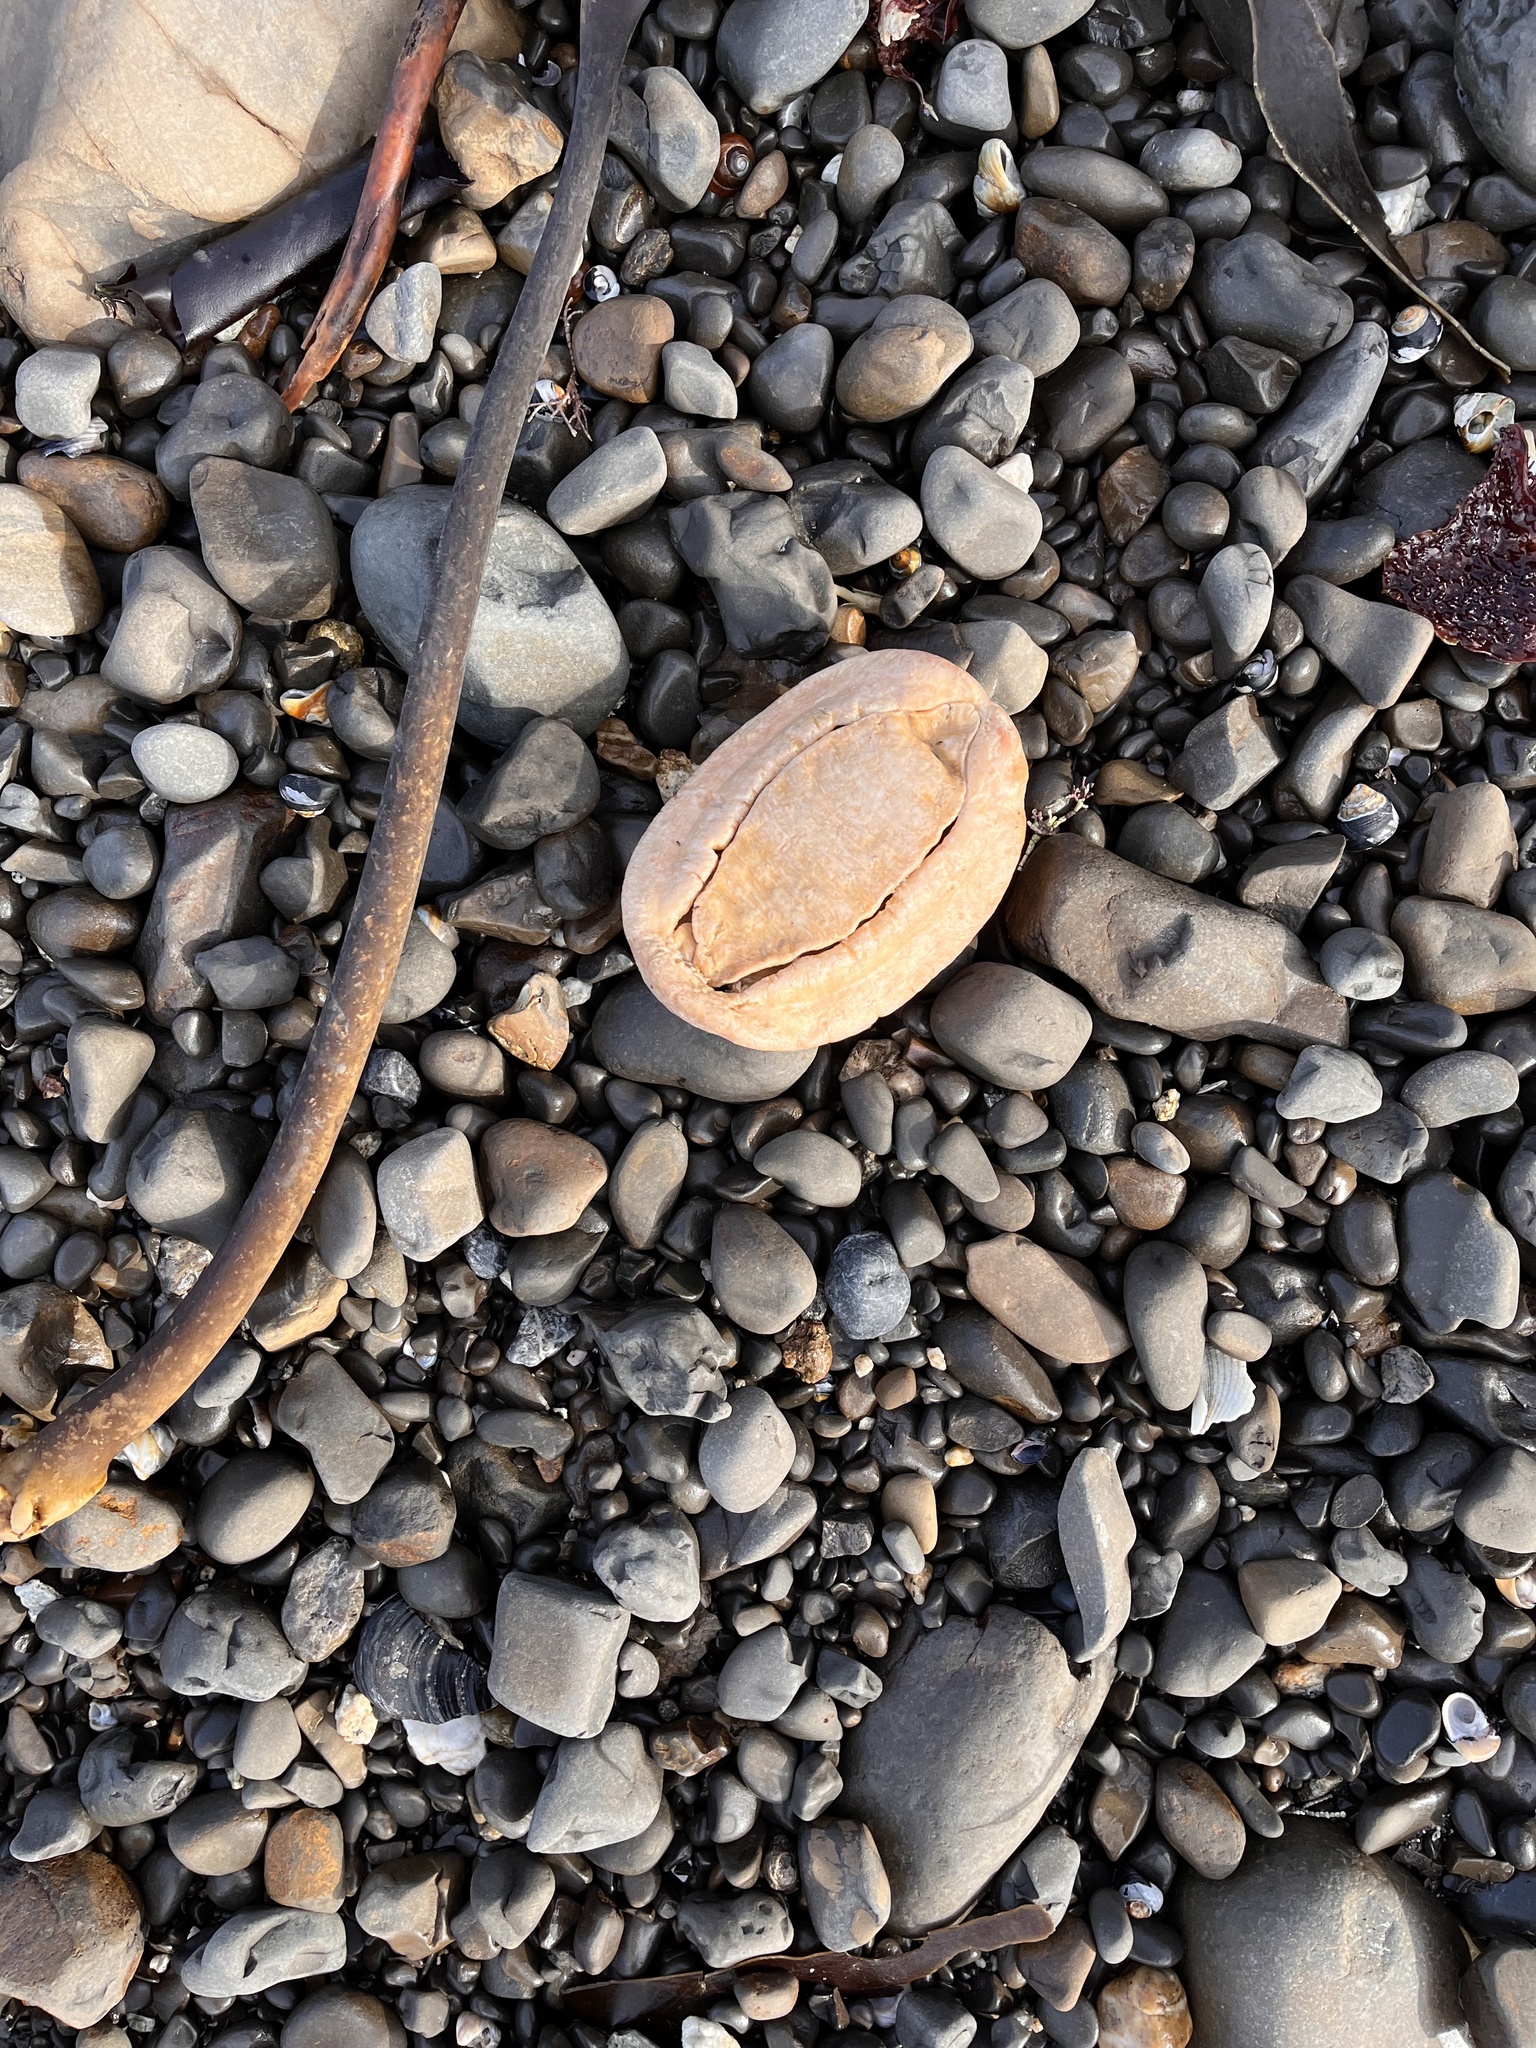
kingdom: Animalia
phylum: Mollusca
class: Polyplacophora
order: Chitonida
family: Acanthochitonidae
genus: Cryptochiton
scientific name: Cryptochiton stelleri
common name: Giant pacific chiton
